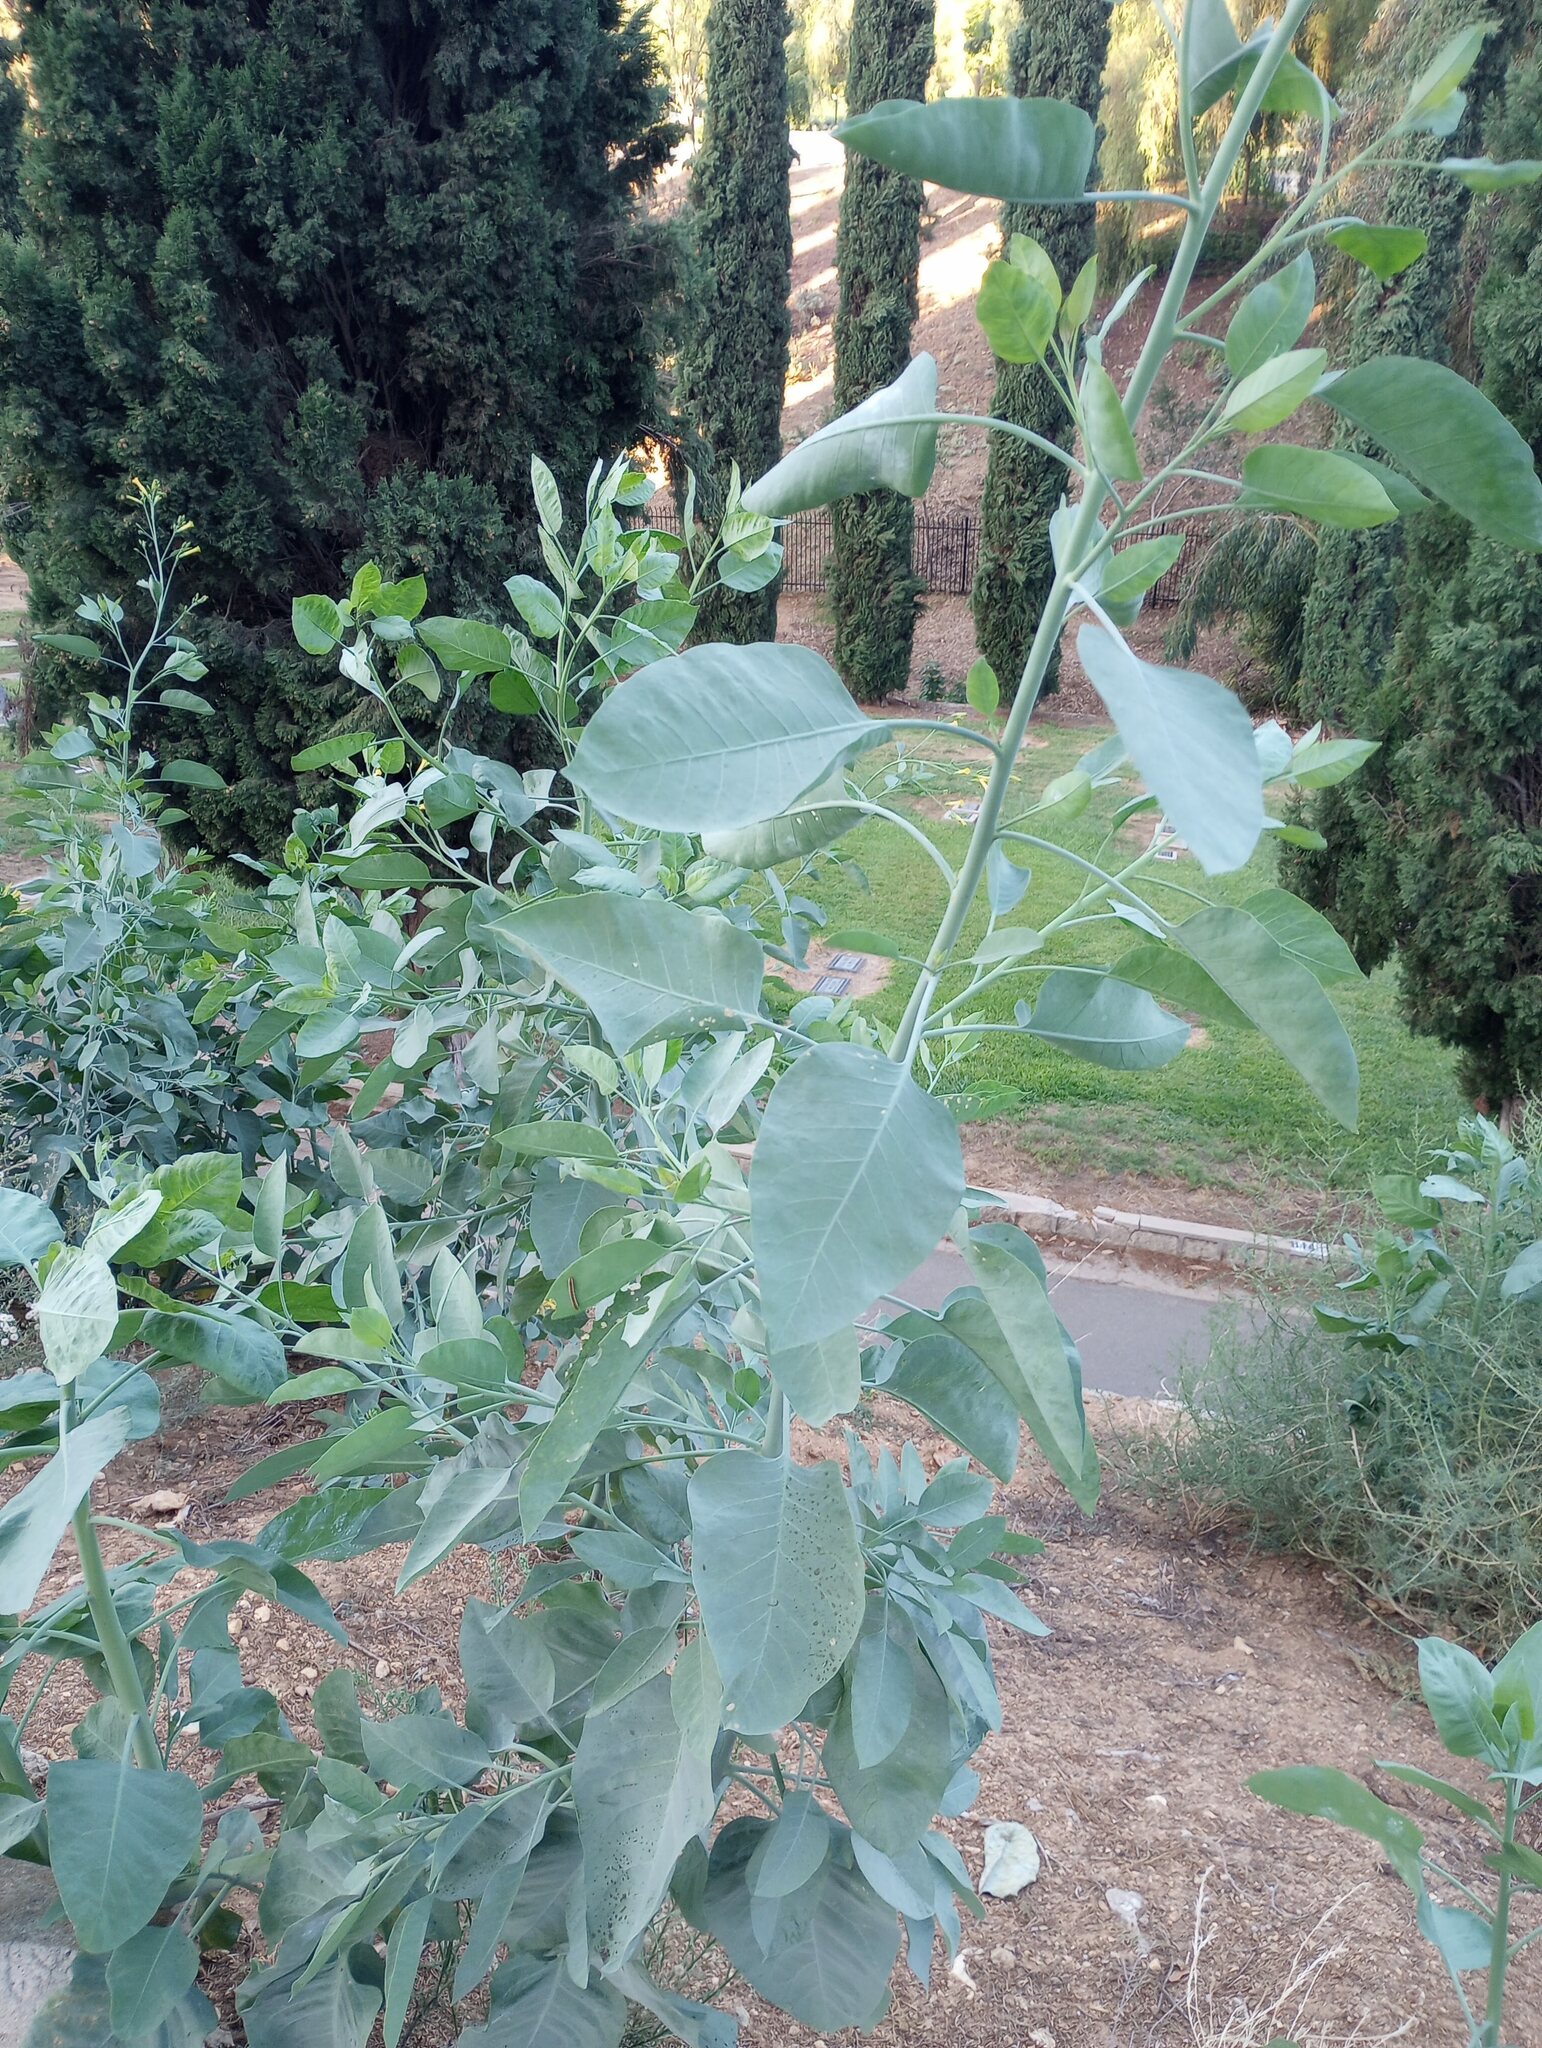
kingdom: Plantae
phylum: Tracheophyta
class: Magnoliopsida
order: Solanales
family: Solanaceae
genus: Nicotiana
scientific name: Nicotiana glauca
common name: Tree tobacco
